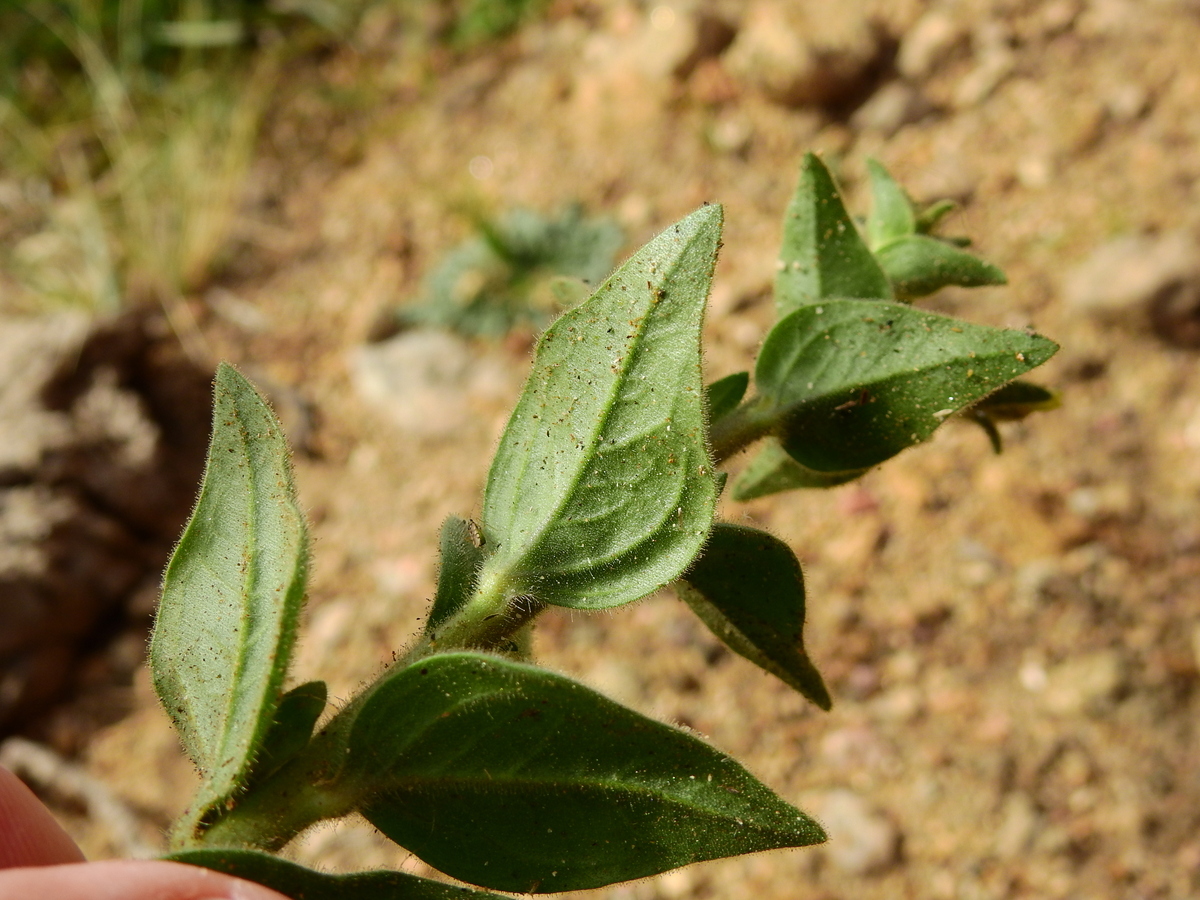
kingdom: Plantae
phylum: Tracheophyta
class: Magnoliopsida
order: Solanales
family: Solanaceae
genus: Petunia
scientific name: Petunia axillaris
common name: Large white petunia
